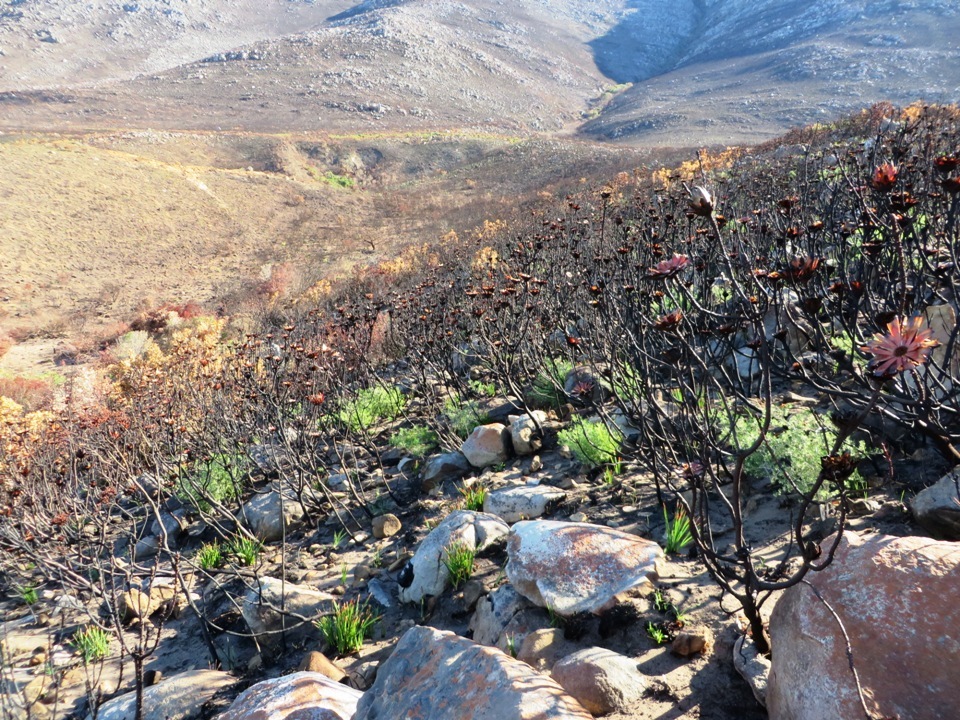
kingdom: Plantae
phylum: Tracheophyta
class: Magnoliopsida
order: Proteales
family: Proteaceae
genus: Protea
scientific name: Protea repens
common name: Sugarbush
